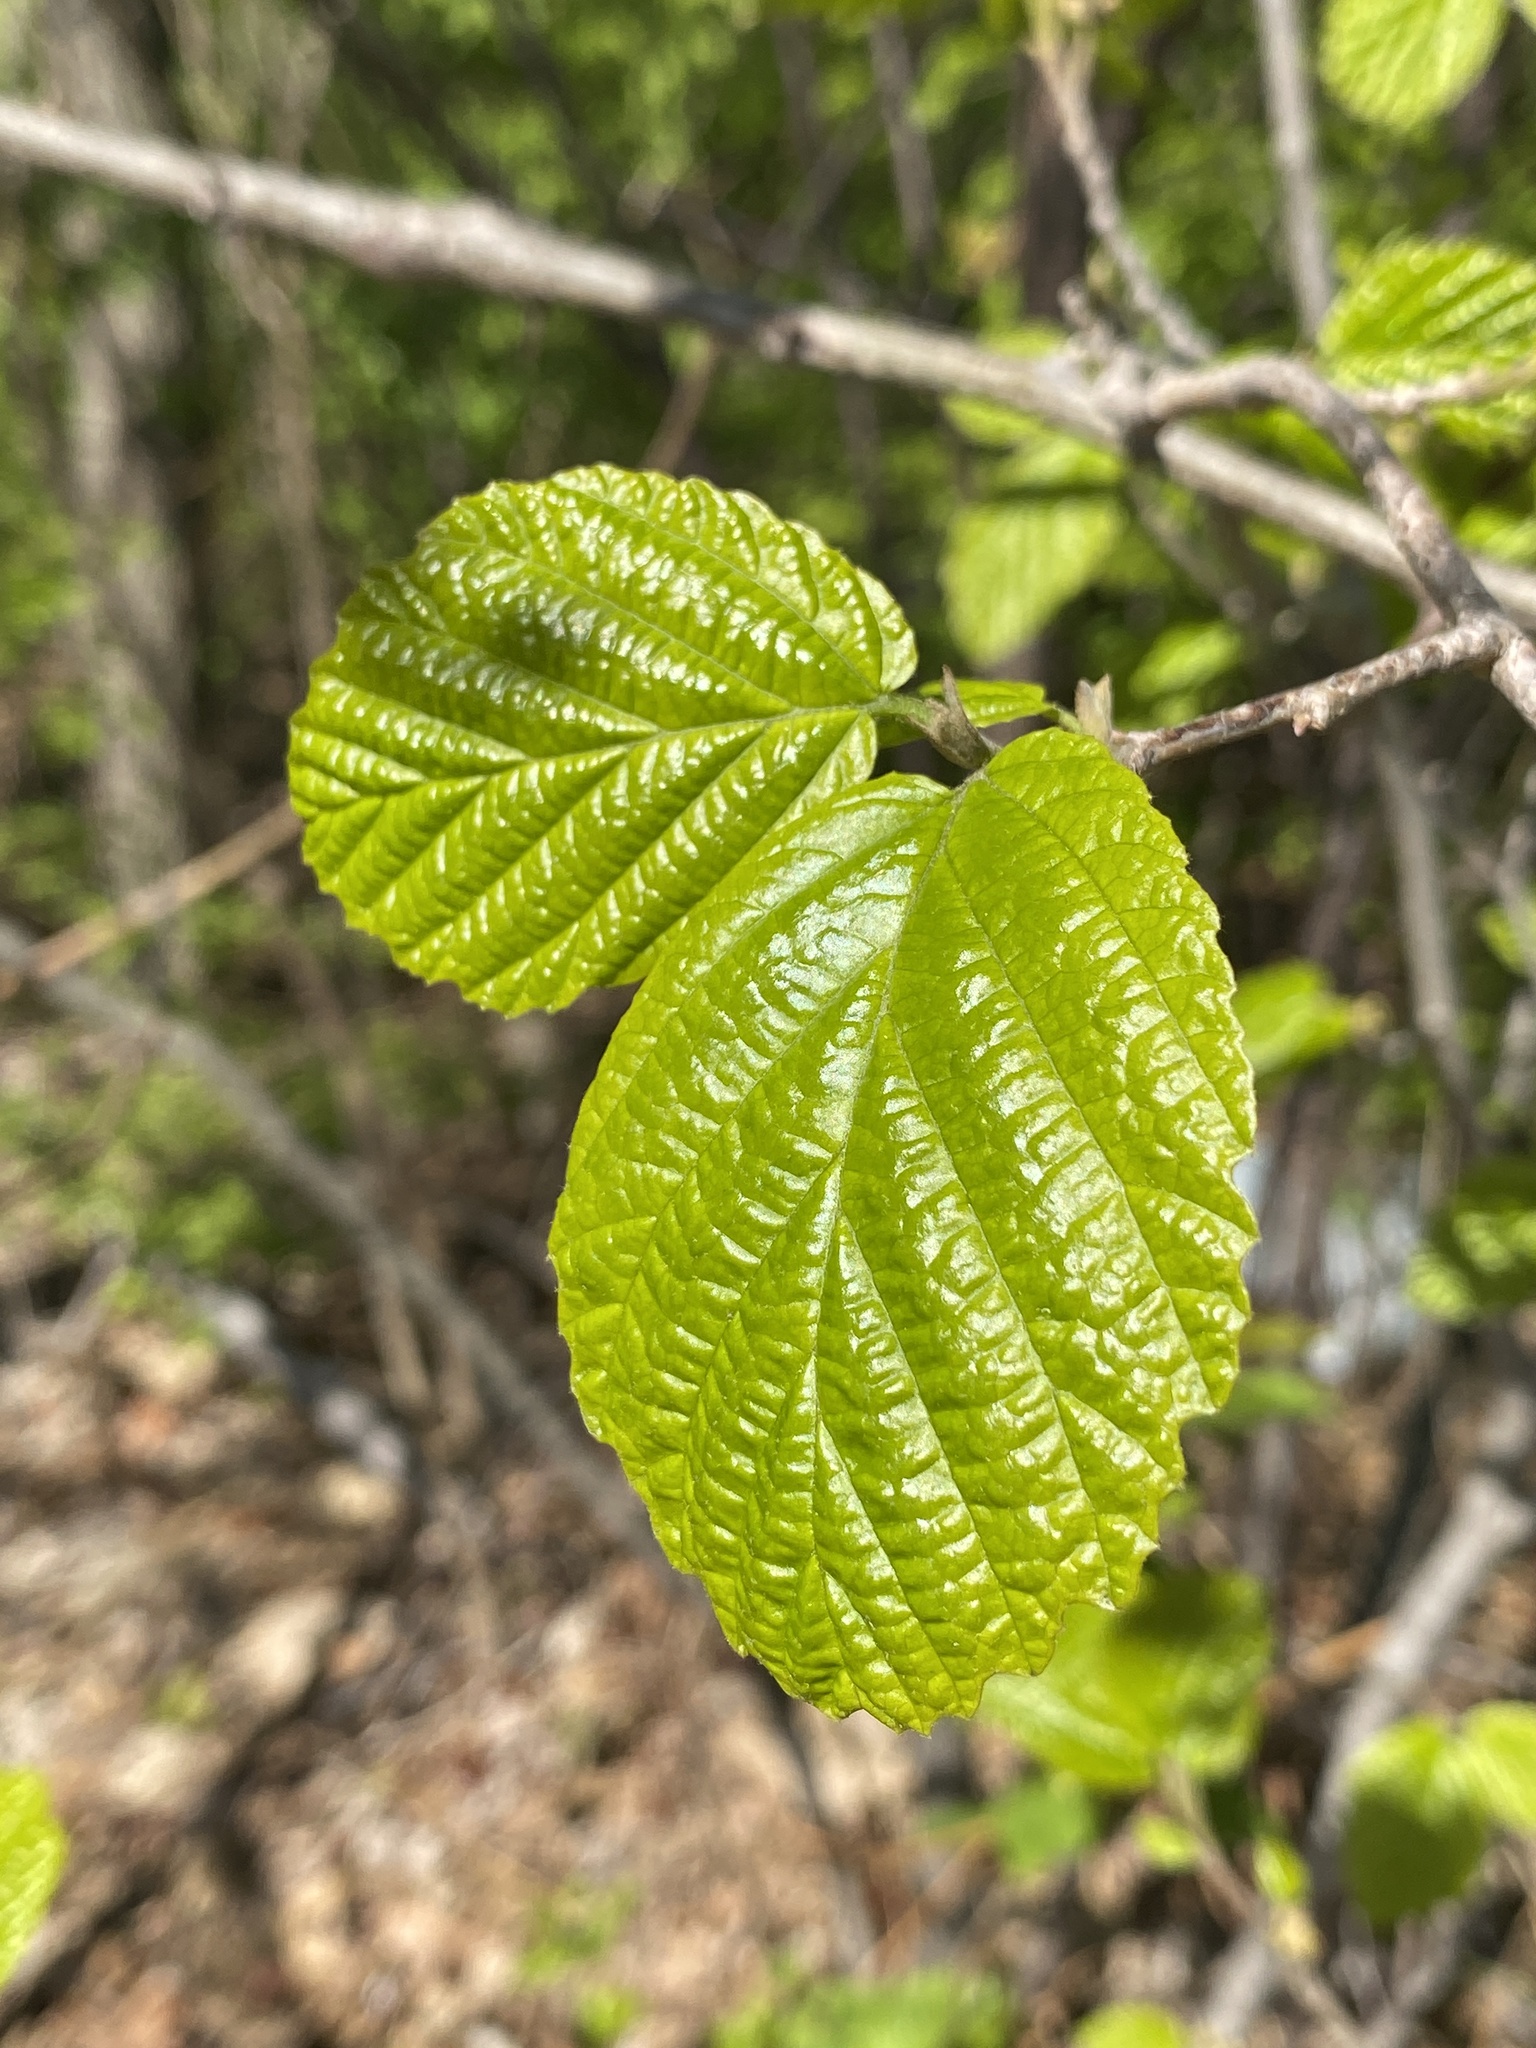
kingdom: Plantae
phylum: Tracheophyta
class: Magnoliopsida
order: Saxifragales
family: Hamamelidaceae
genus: Hamamelis
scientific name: Hamamelis virginiana
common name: Witch-hazel
